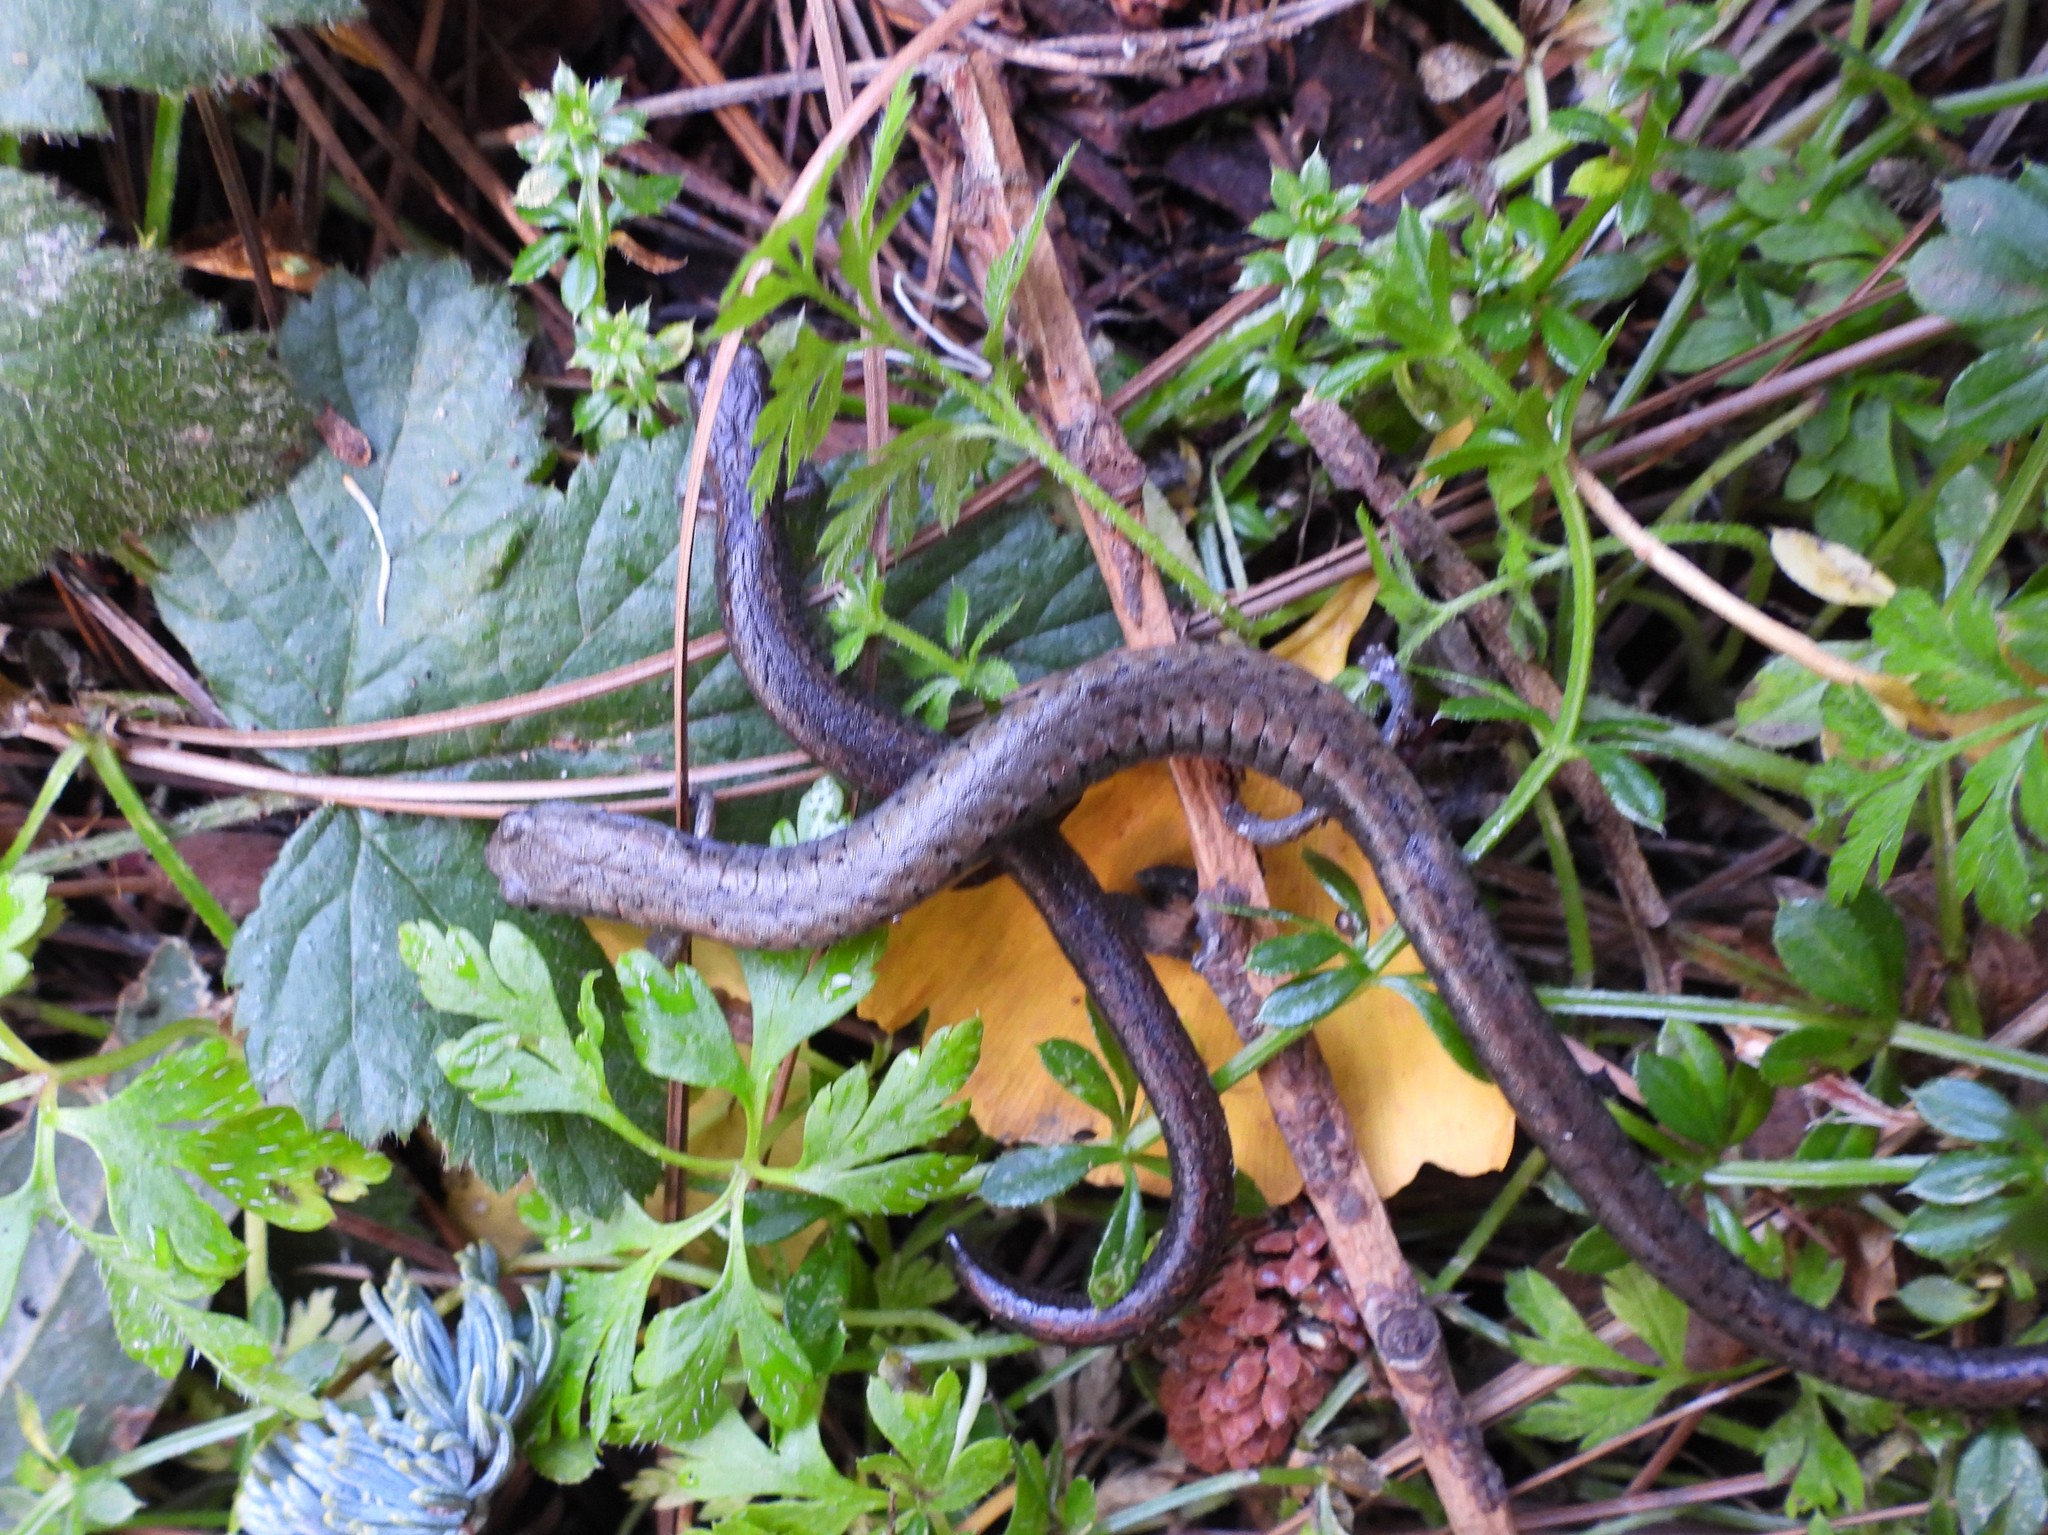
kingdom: Animalia
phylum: Chordata
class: Amphibia
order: Caudata
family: Plethodontidae
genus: Batrachoseps
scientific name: Batrachoseps attenuatus
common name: California slender salamander
